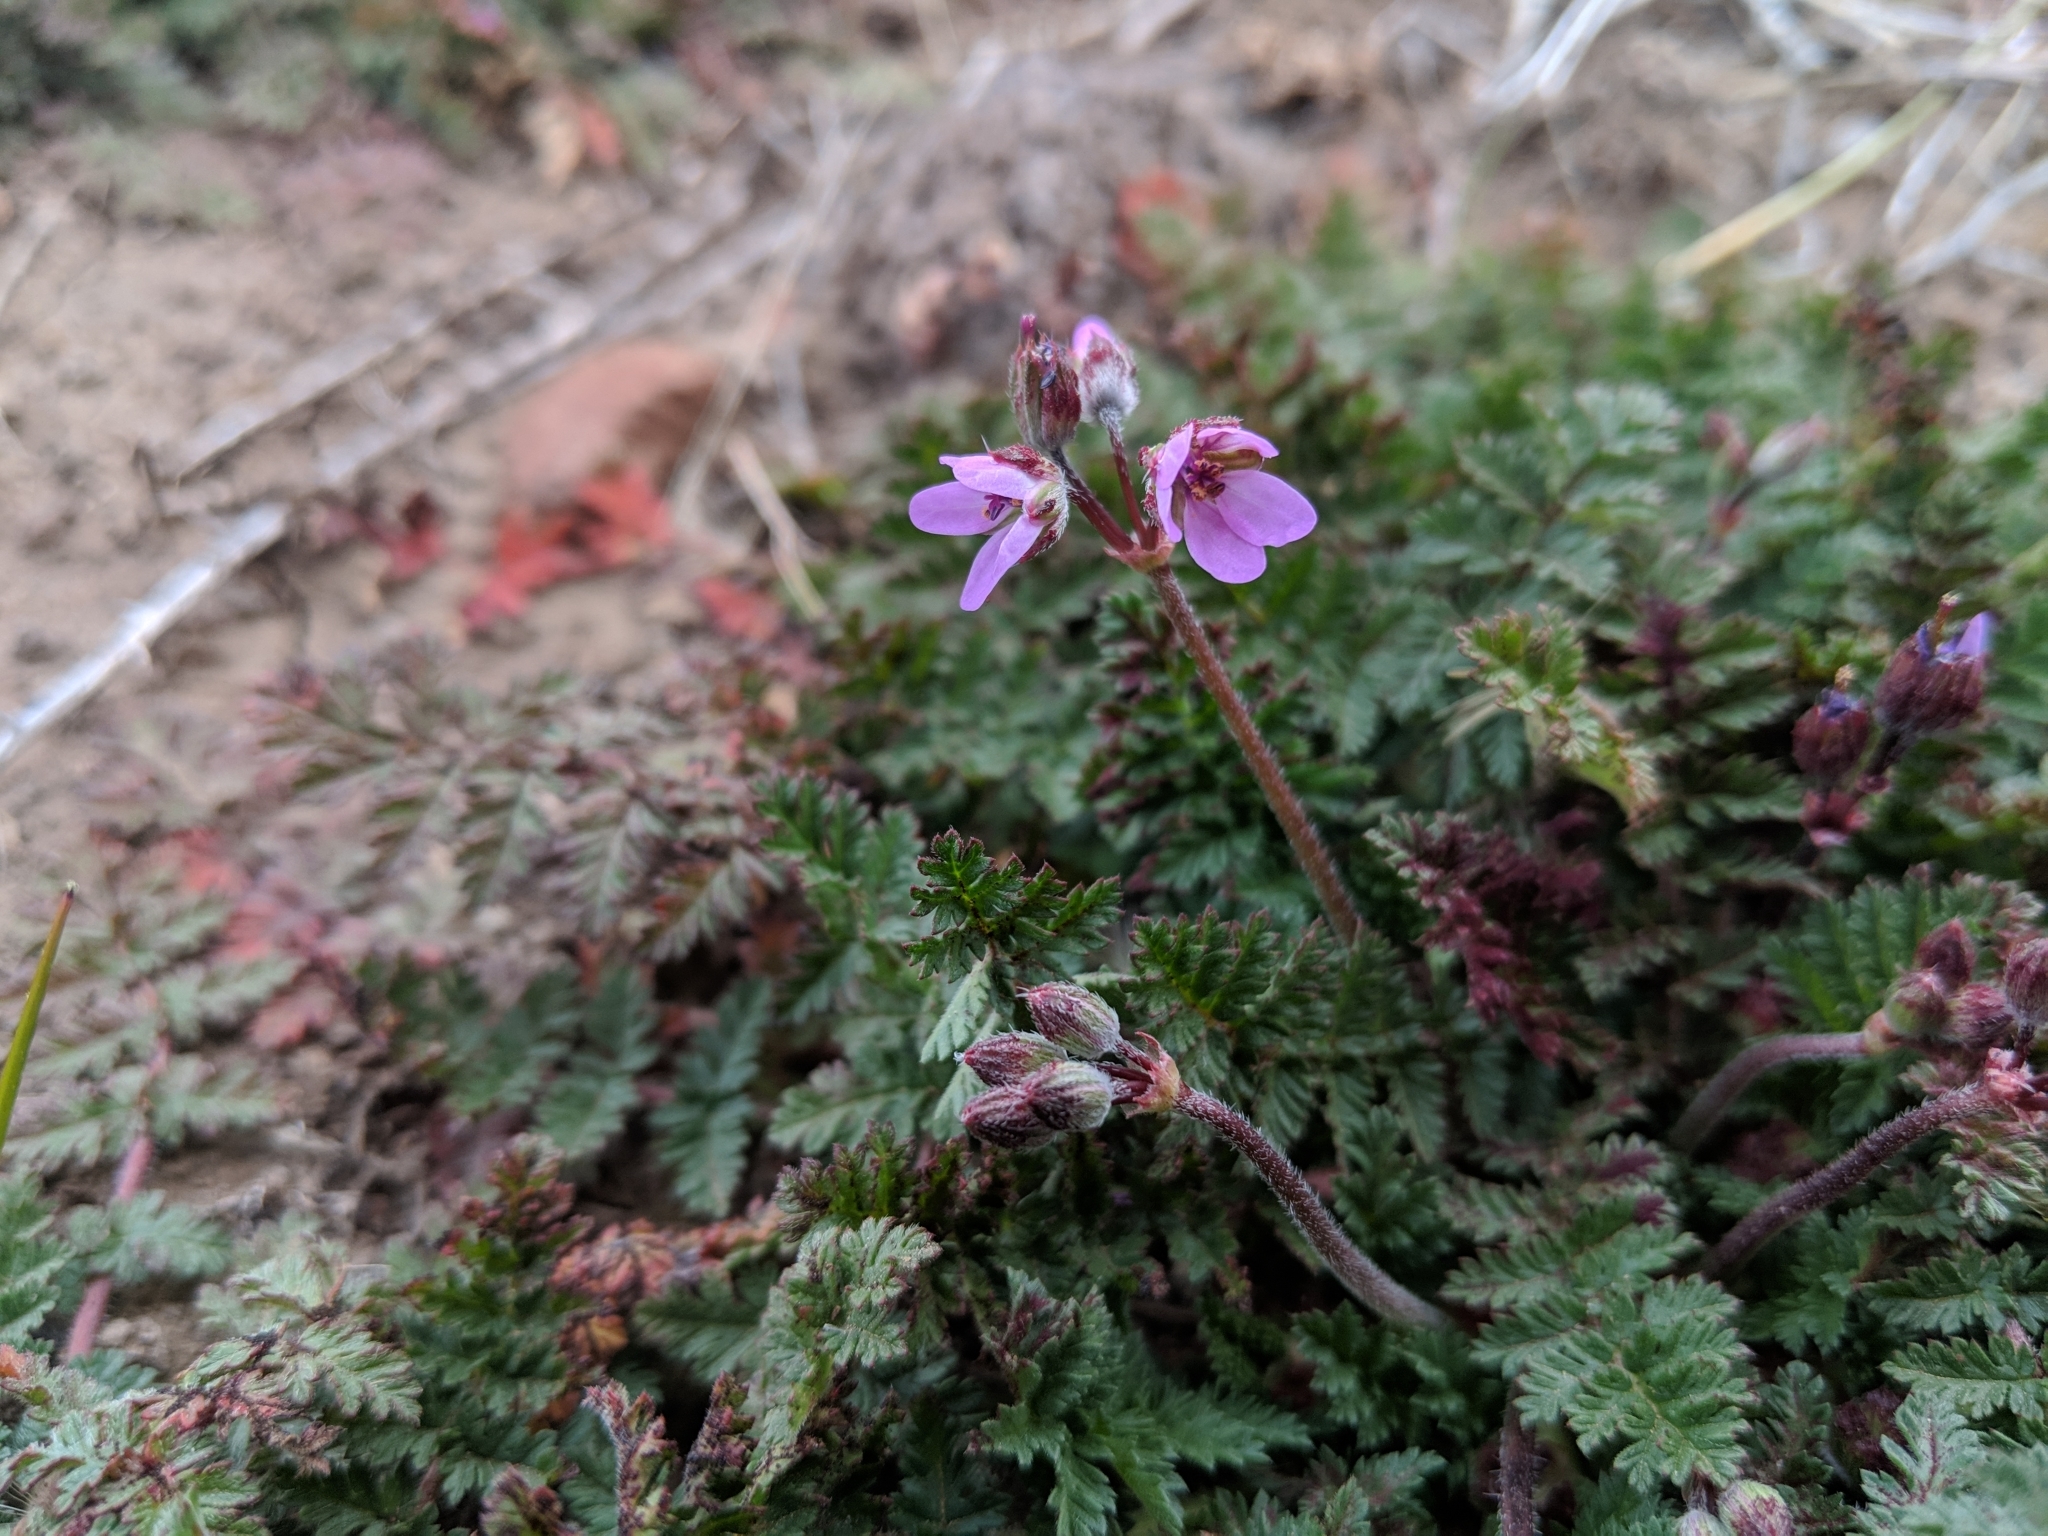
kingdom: Plantae
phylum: Tracheophyta
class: Magnoliopsida
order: Geraniales
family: Geraniaceae
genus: Erodium
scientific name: Erodium cicutarium
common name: Common stork's-bill
